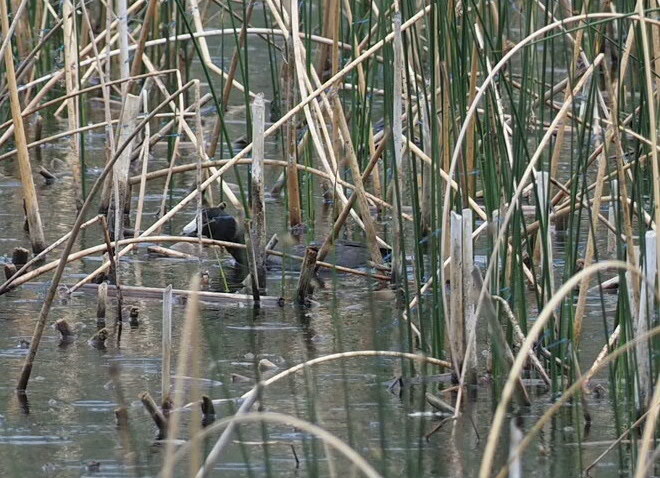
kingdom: Animalia
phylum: Chordata
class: Aves
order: Gruiformes
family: Rallidae
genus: Fulica
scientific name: Fulica americana
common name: American coot
